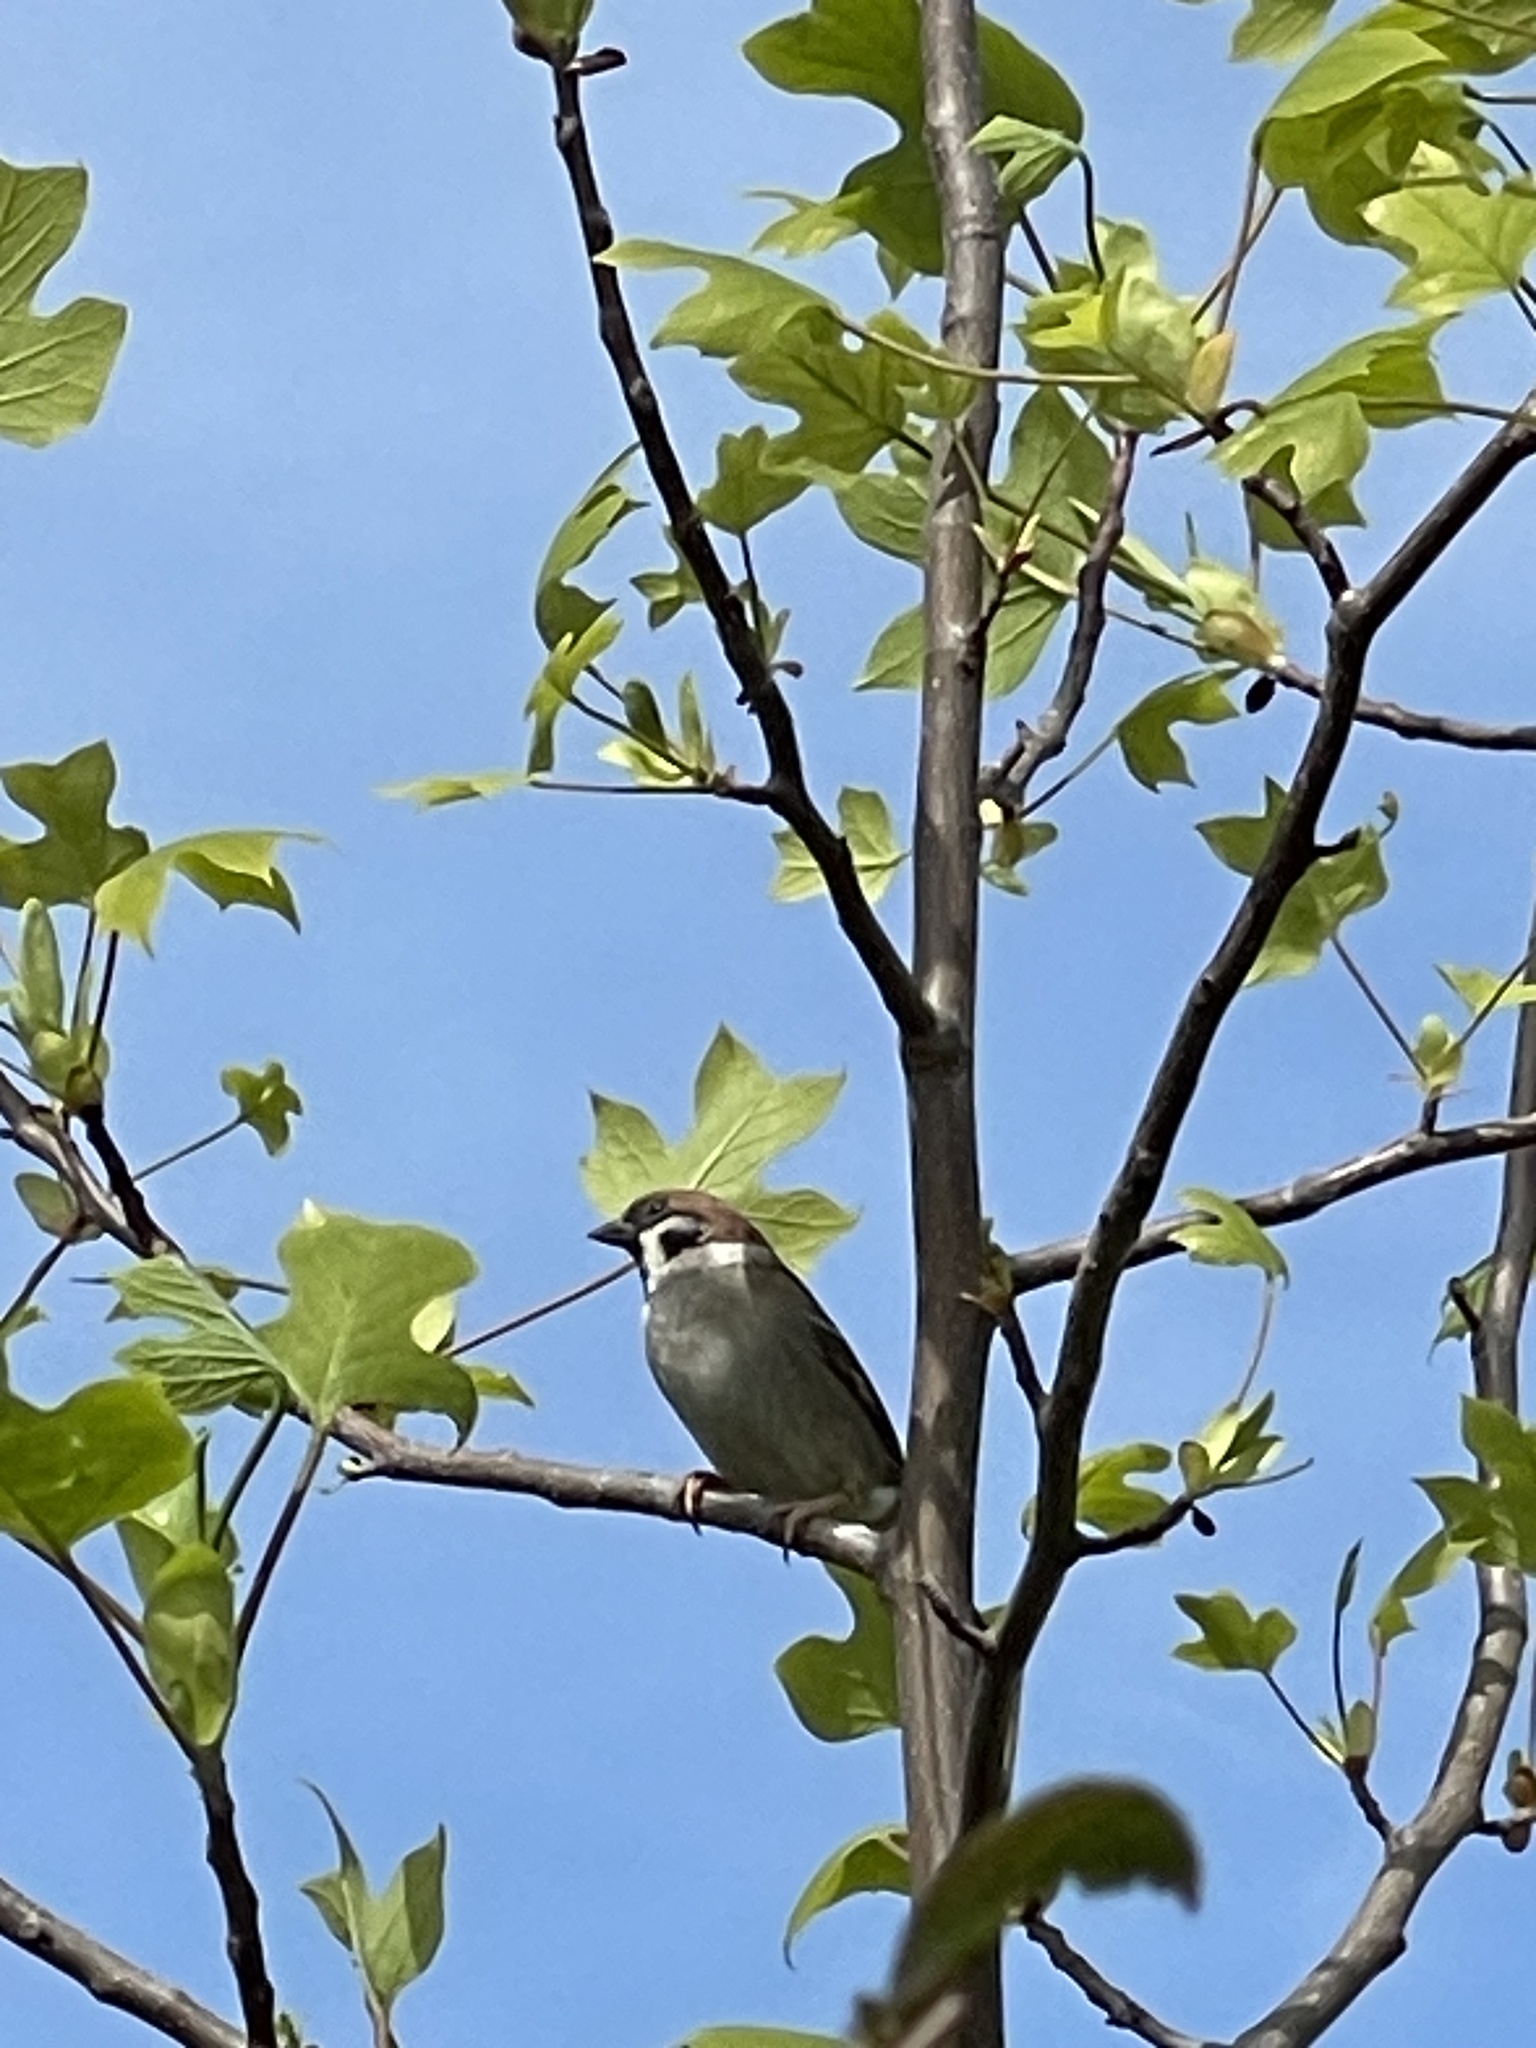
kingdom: Animalia
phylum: Chordata
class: Aves
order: Passeriformes
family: Passeridae
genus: Passer
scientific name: Passer montanus
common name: Eurasian tree sparrow
